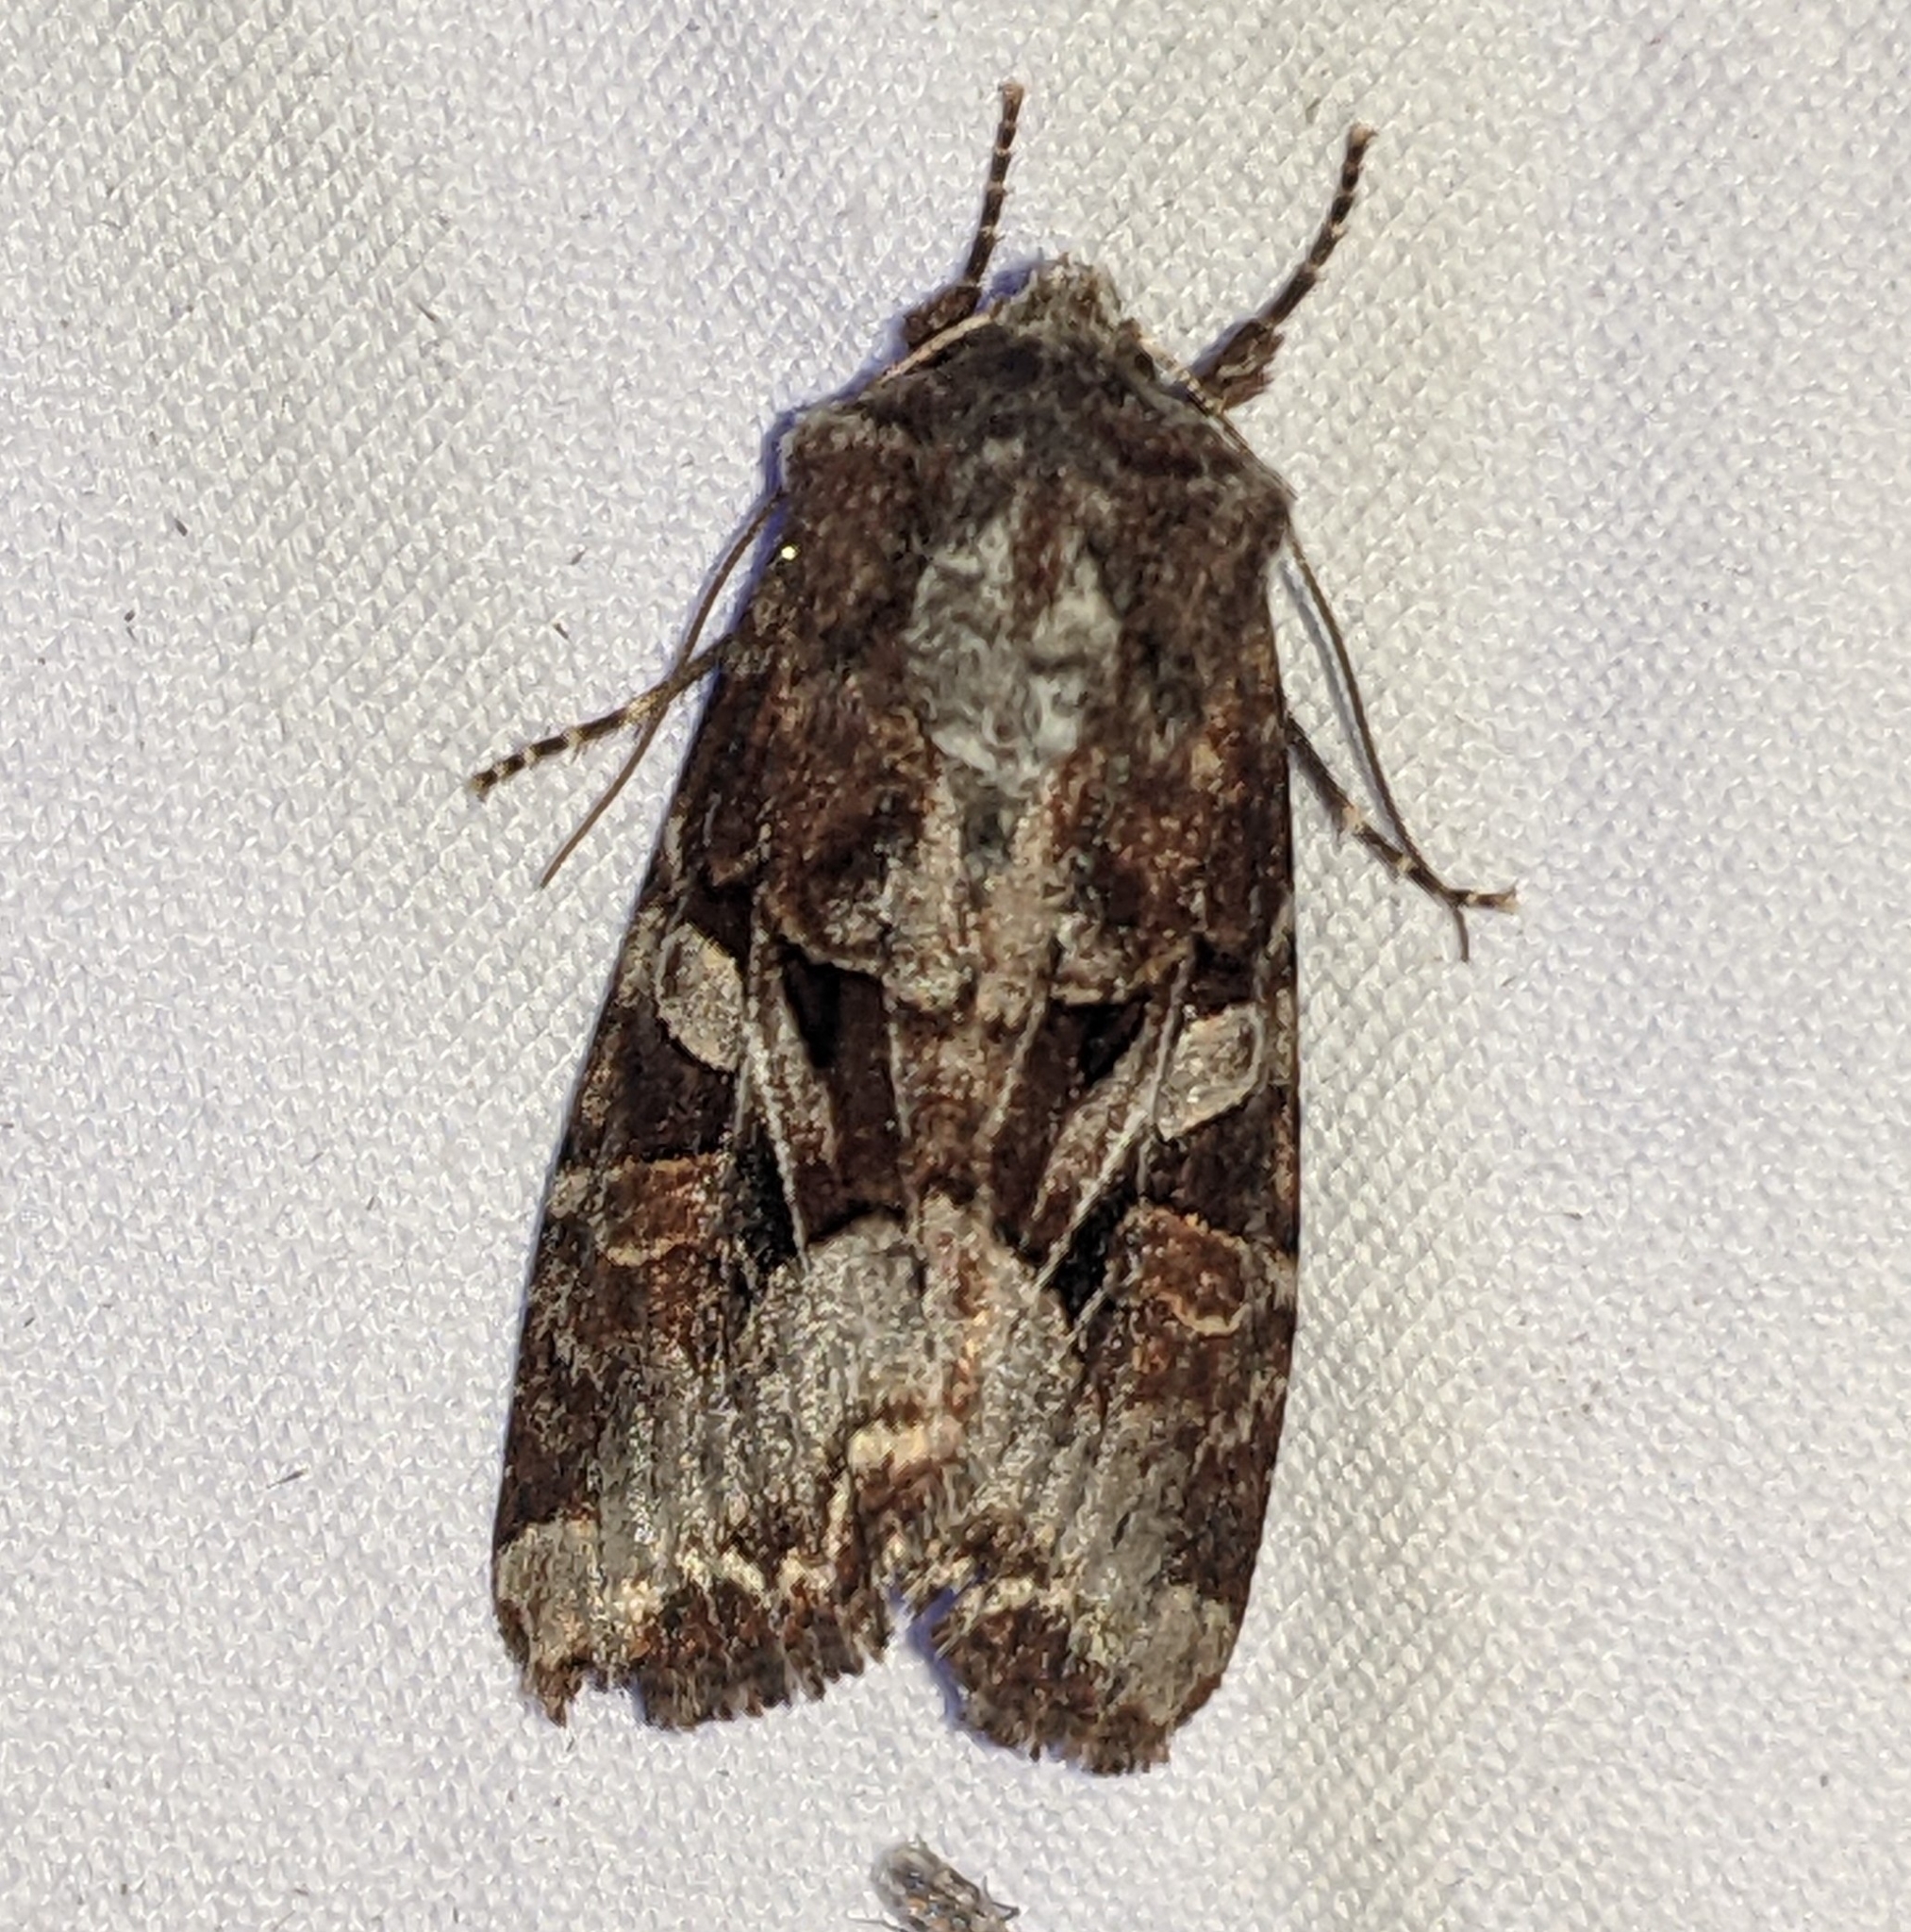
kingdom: Animalia
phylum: Arthropoda
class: Insecta
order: Lepidoptera
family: Noctuidae
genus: Trichordestra
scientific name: Trichordestra tacoma
